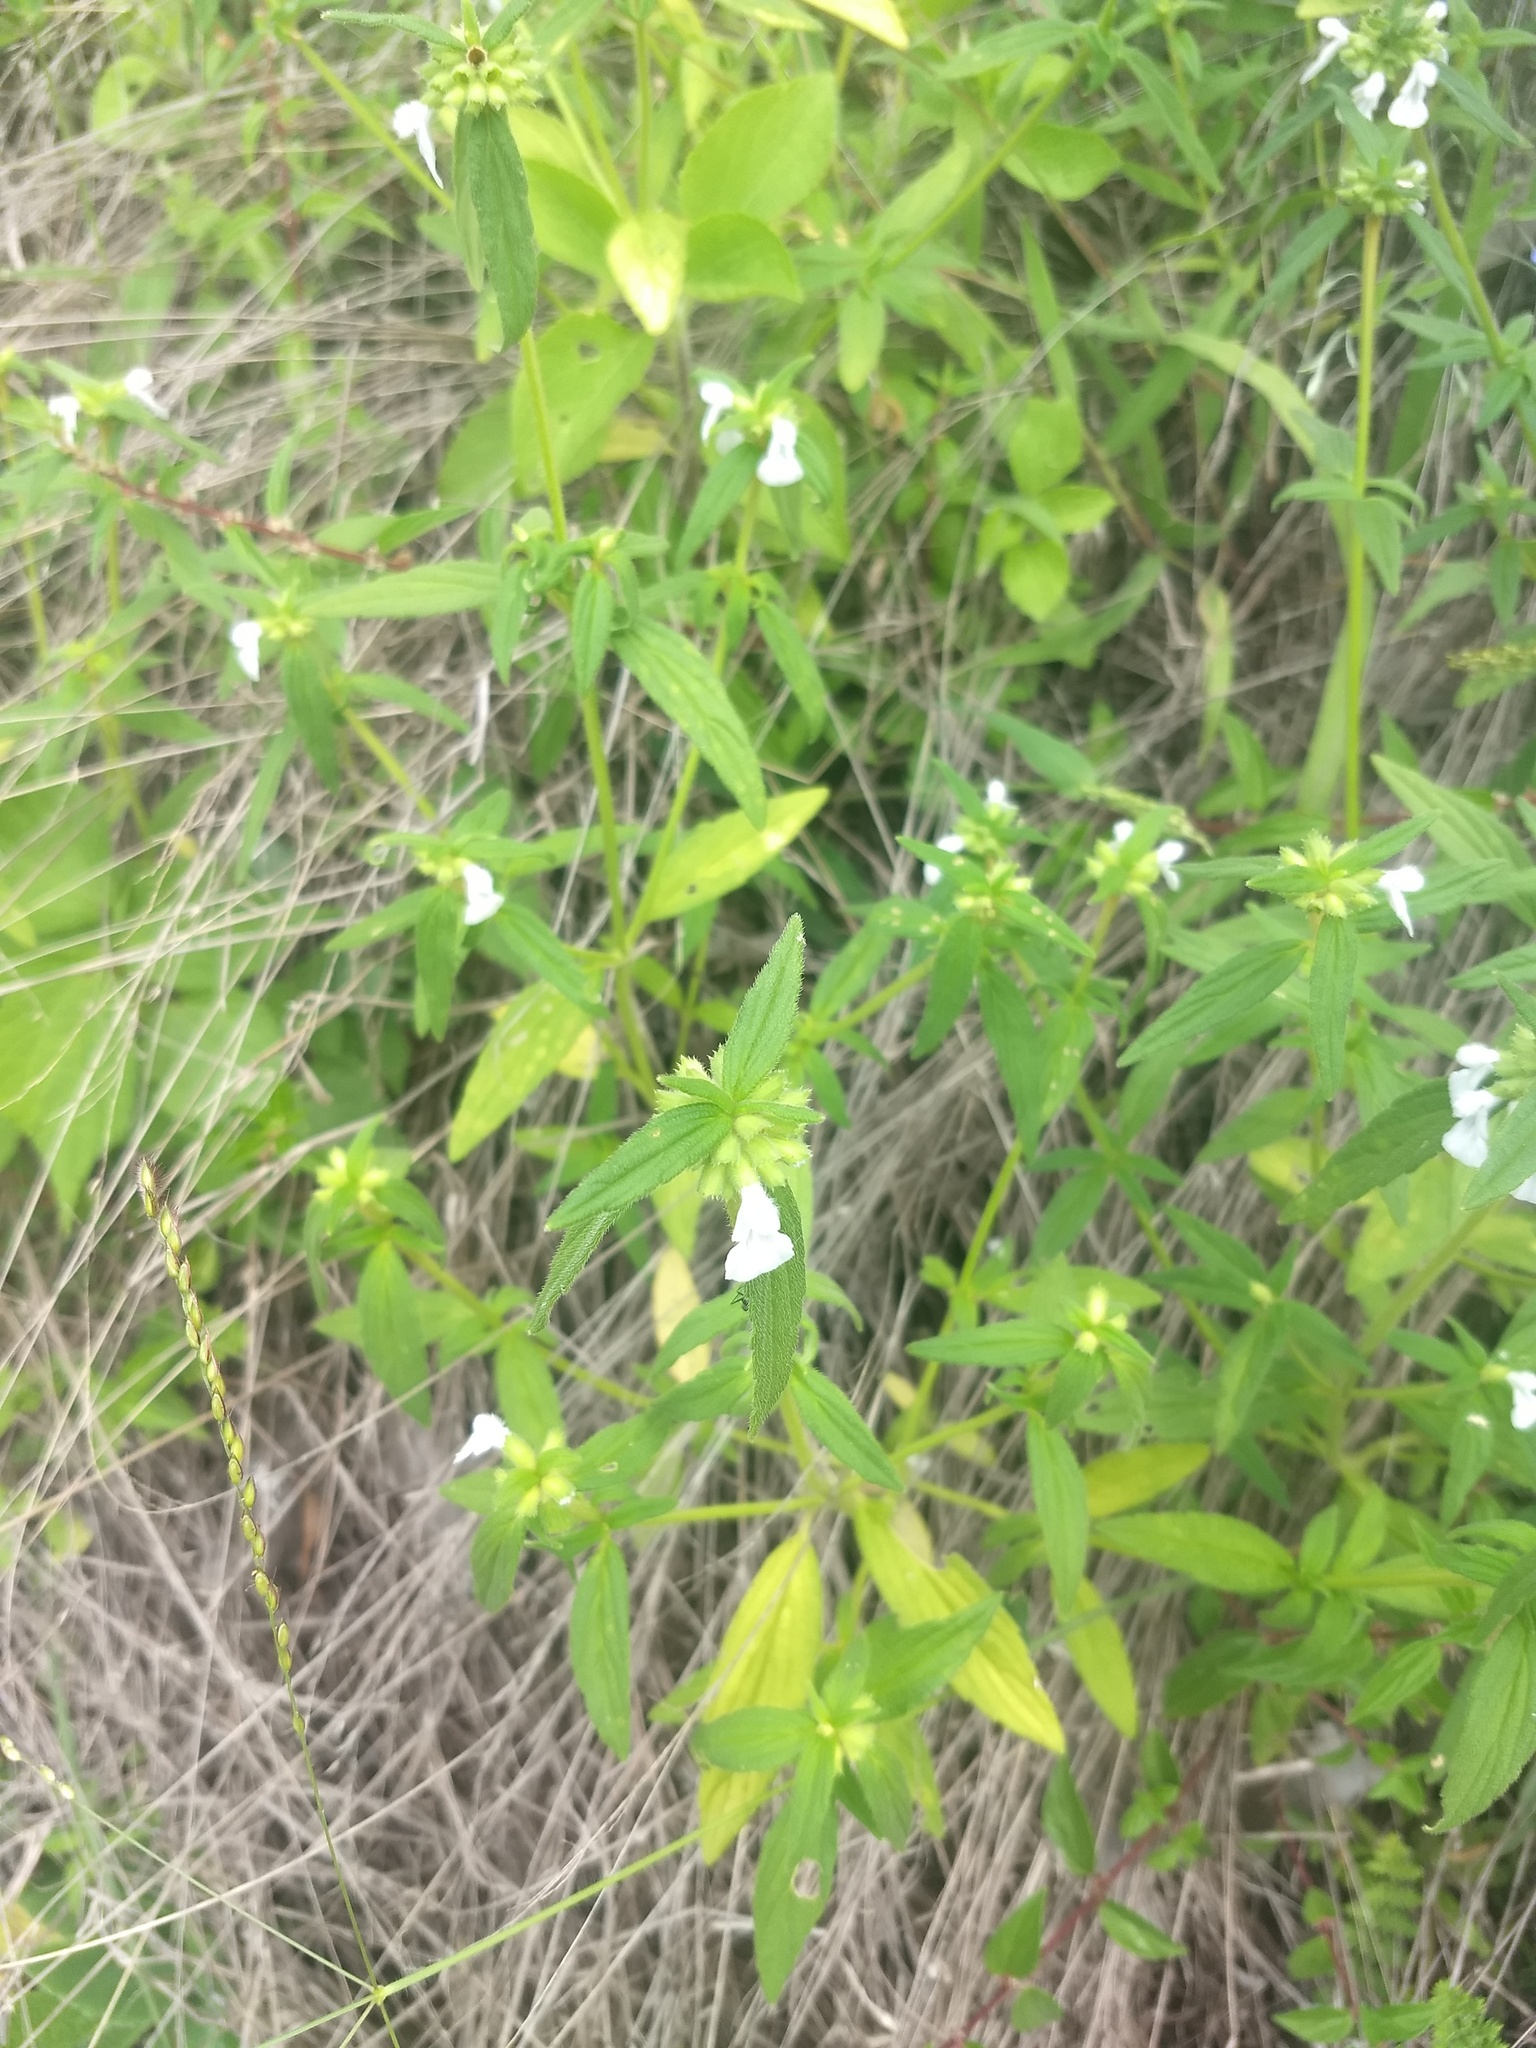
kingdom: Plantae
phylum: Tracheophyta
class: Magnoliopsida
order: Lamiales
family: Lamiaceae
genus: Leucas
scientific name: Leucas aspera
